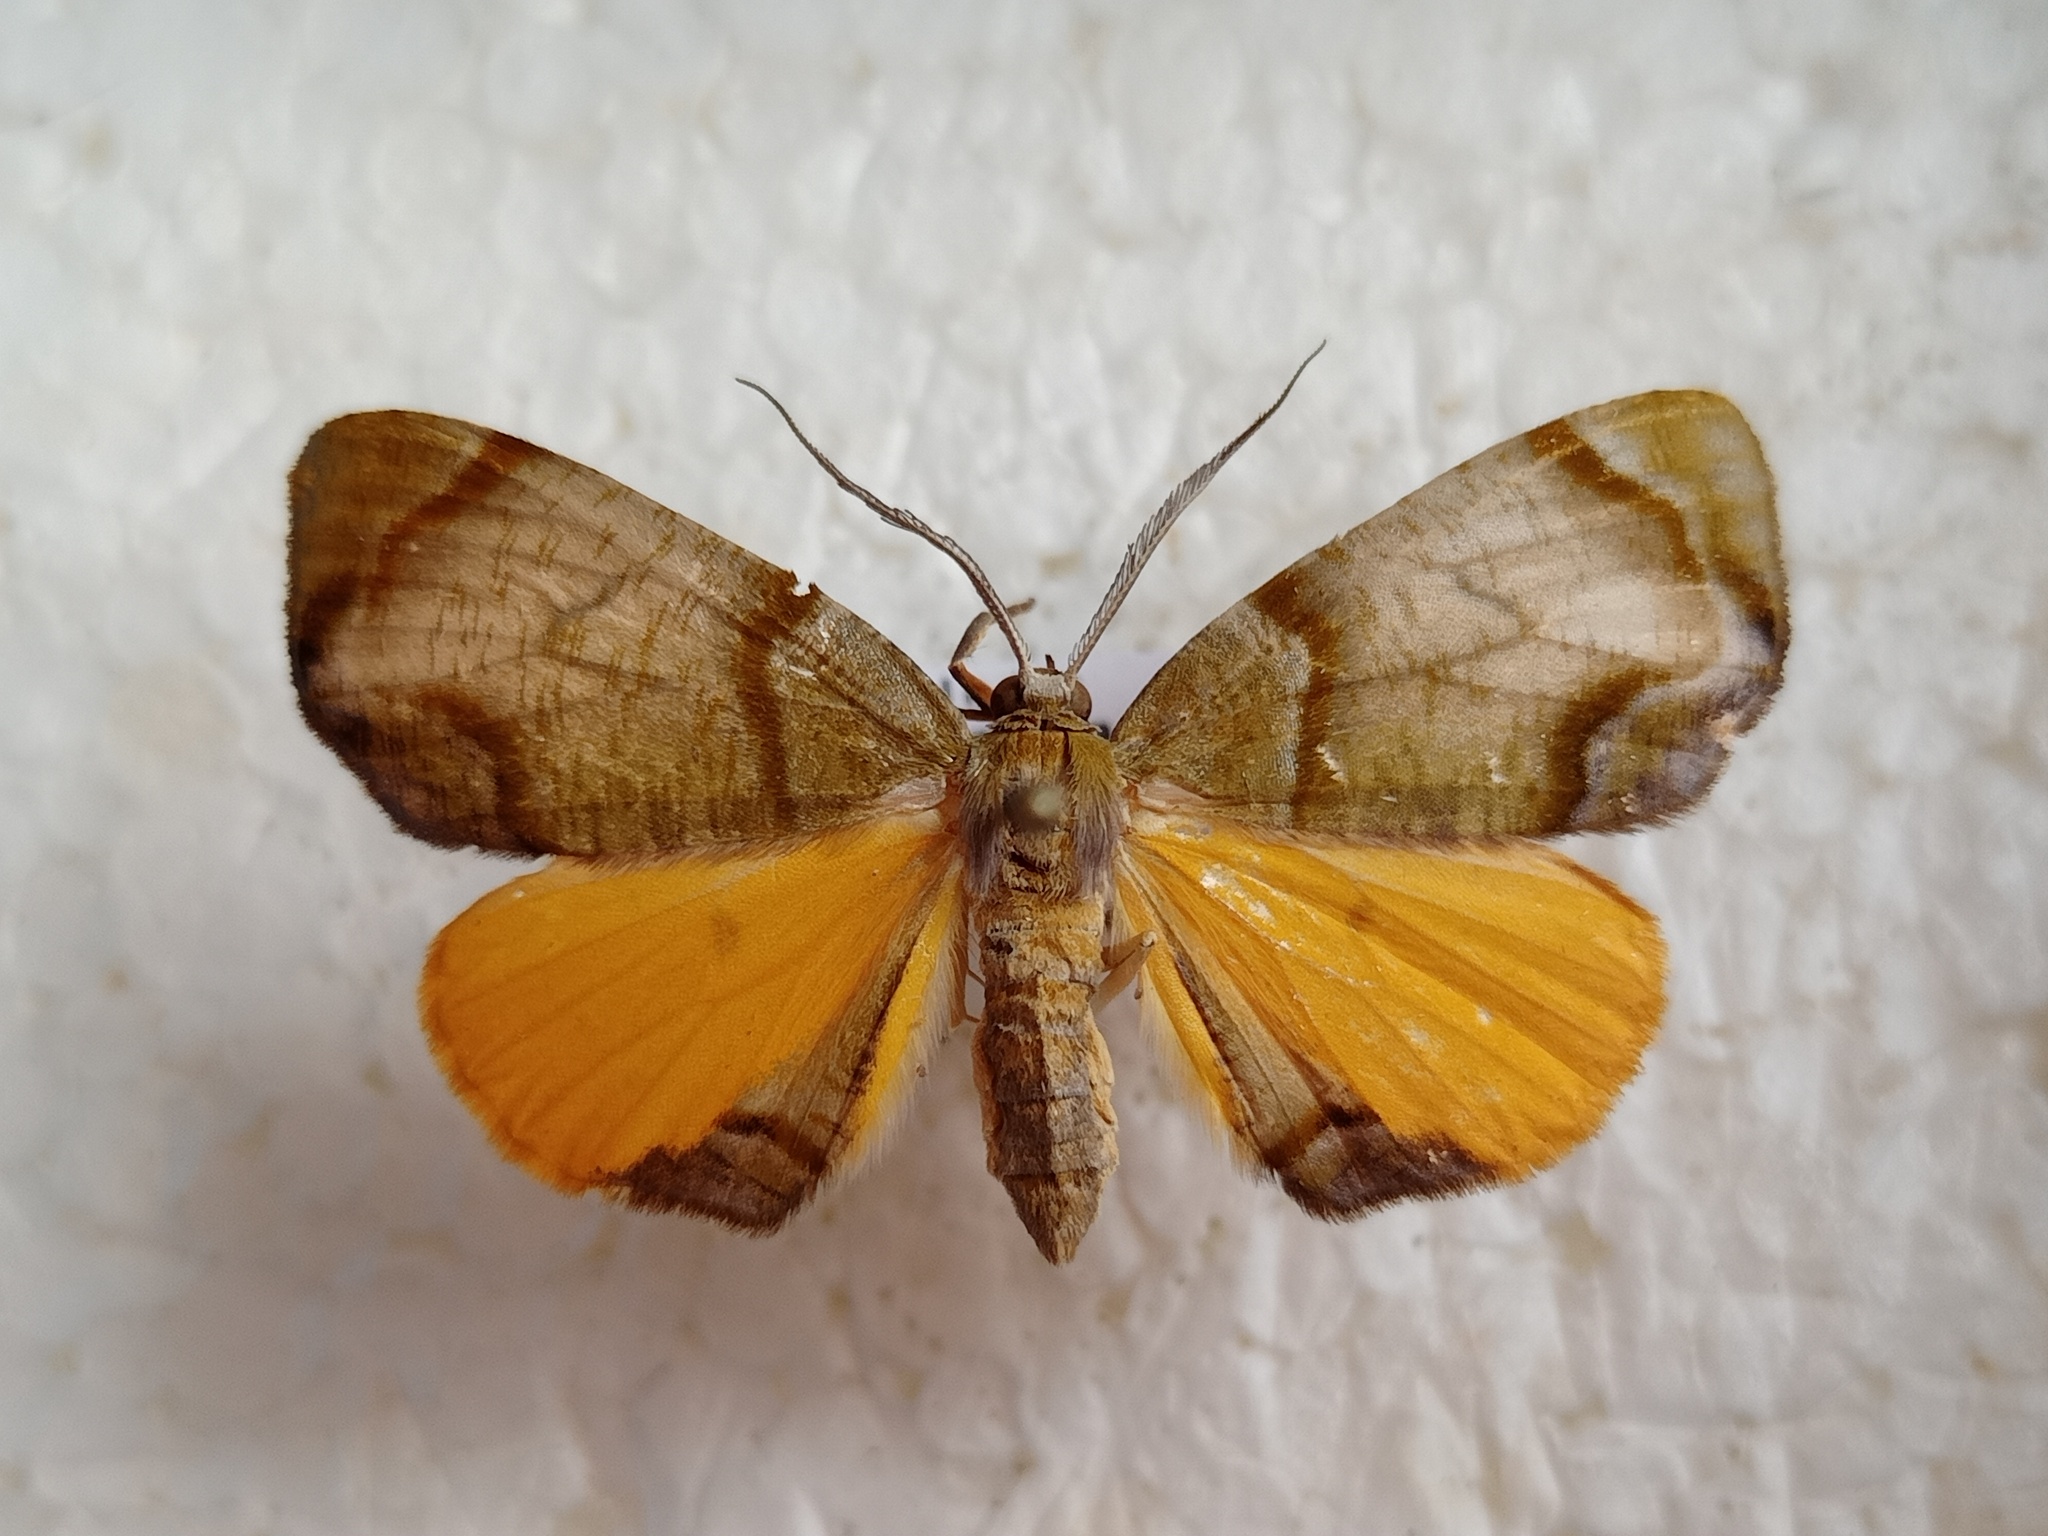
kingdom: Animalia
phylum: Arthropoda
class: Insecta
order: Lepidoptera
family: Geometridae
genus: Achrosis
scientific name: Achrosis incitata
